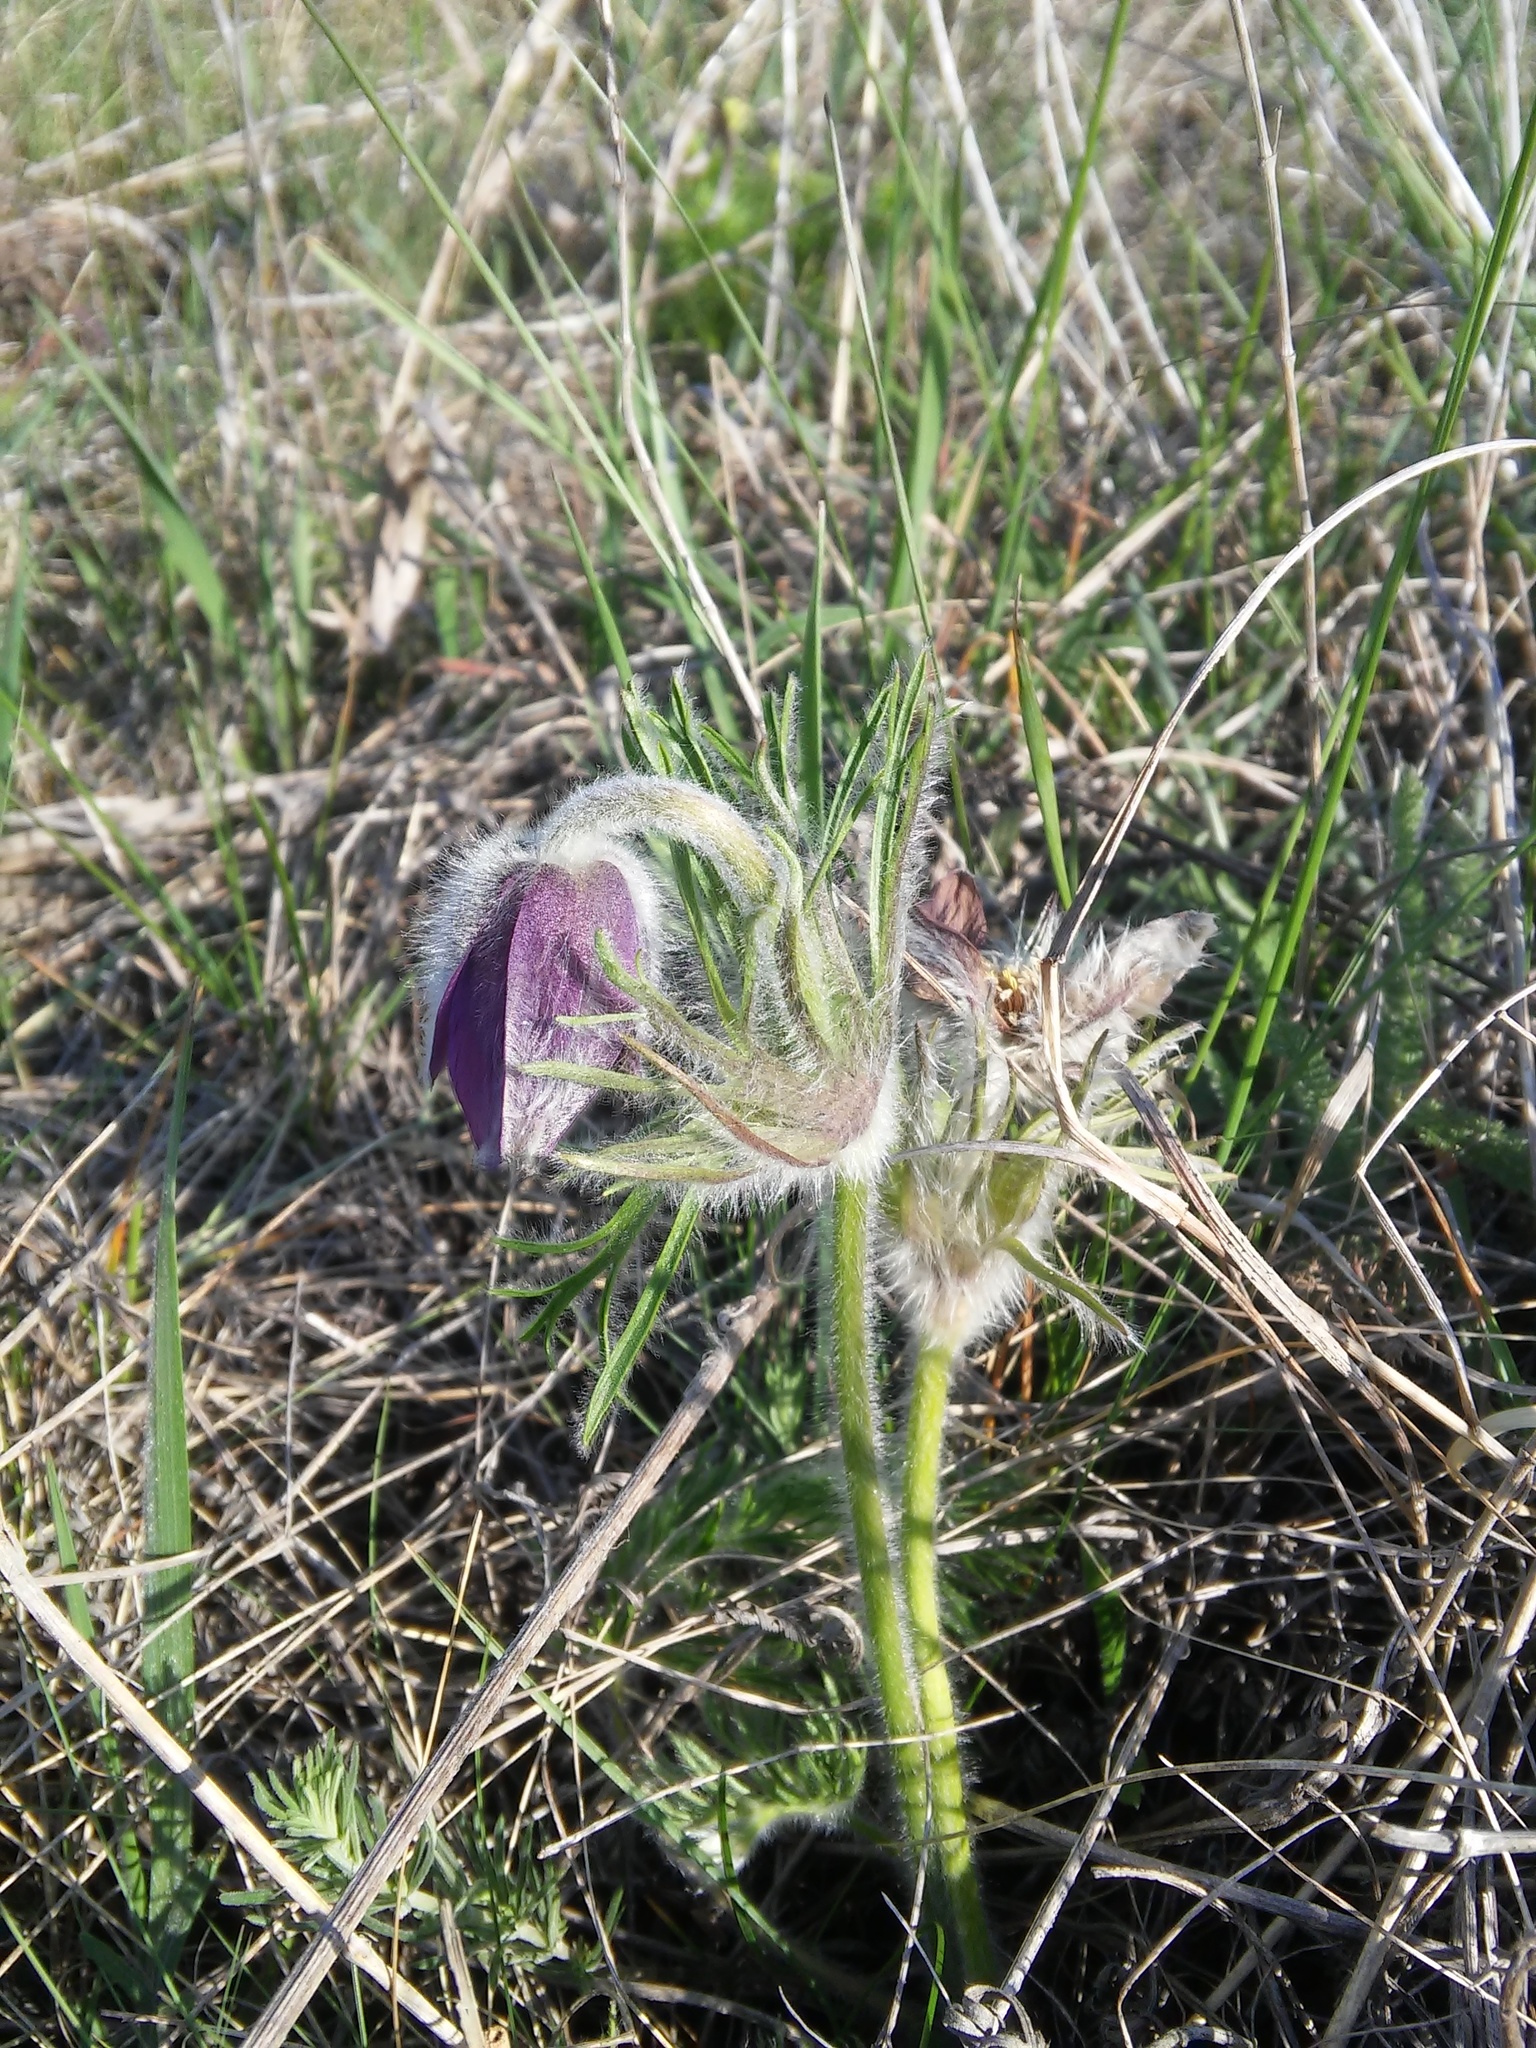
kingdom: Plantae
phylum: Tracheophyta
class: Magnoliopsida
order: Ranunculales
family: Ranunculaceae
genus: Pulsatilla
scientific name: Pulsatilla pratensis
